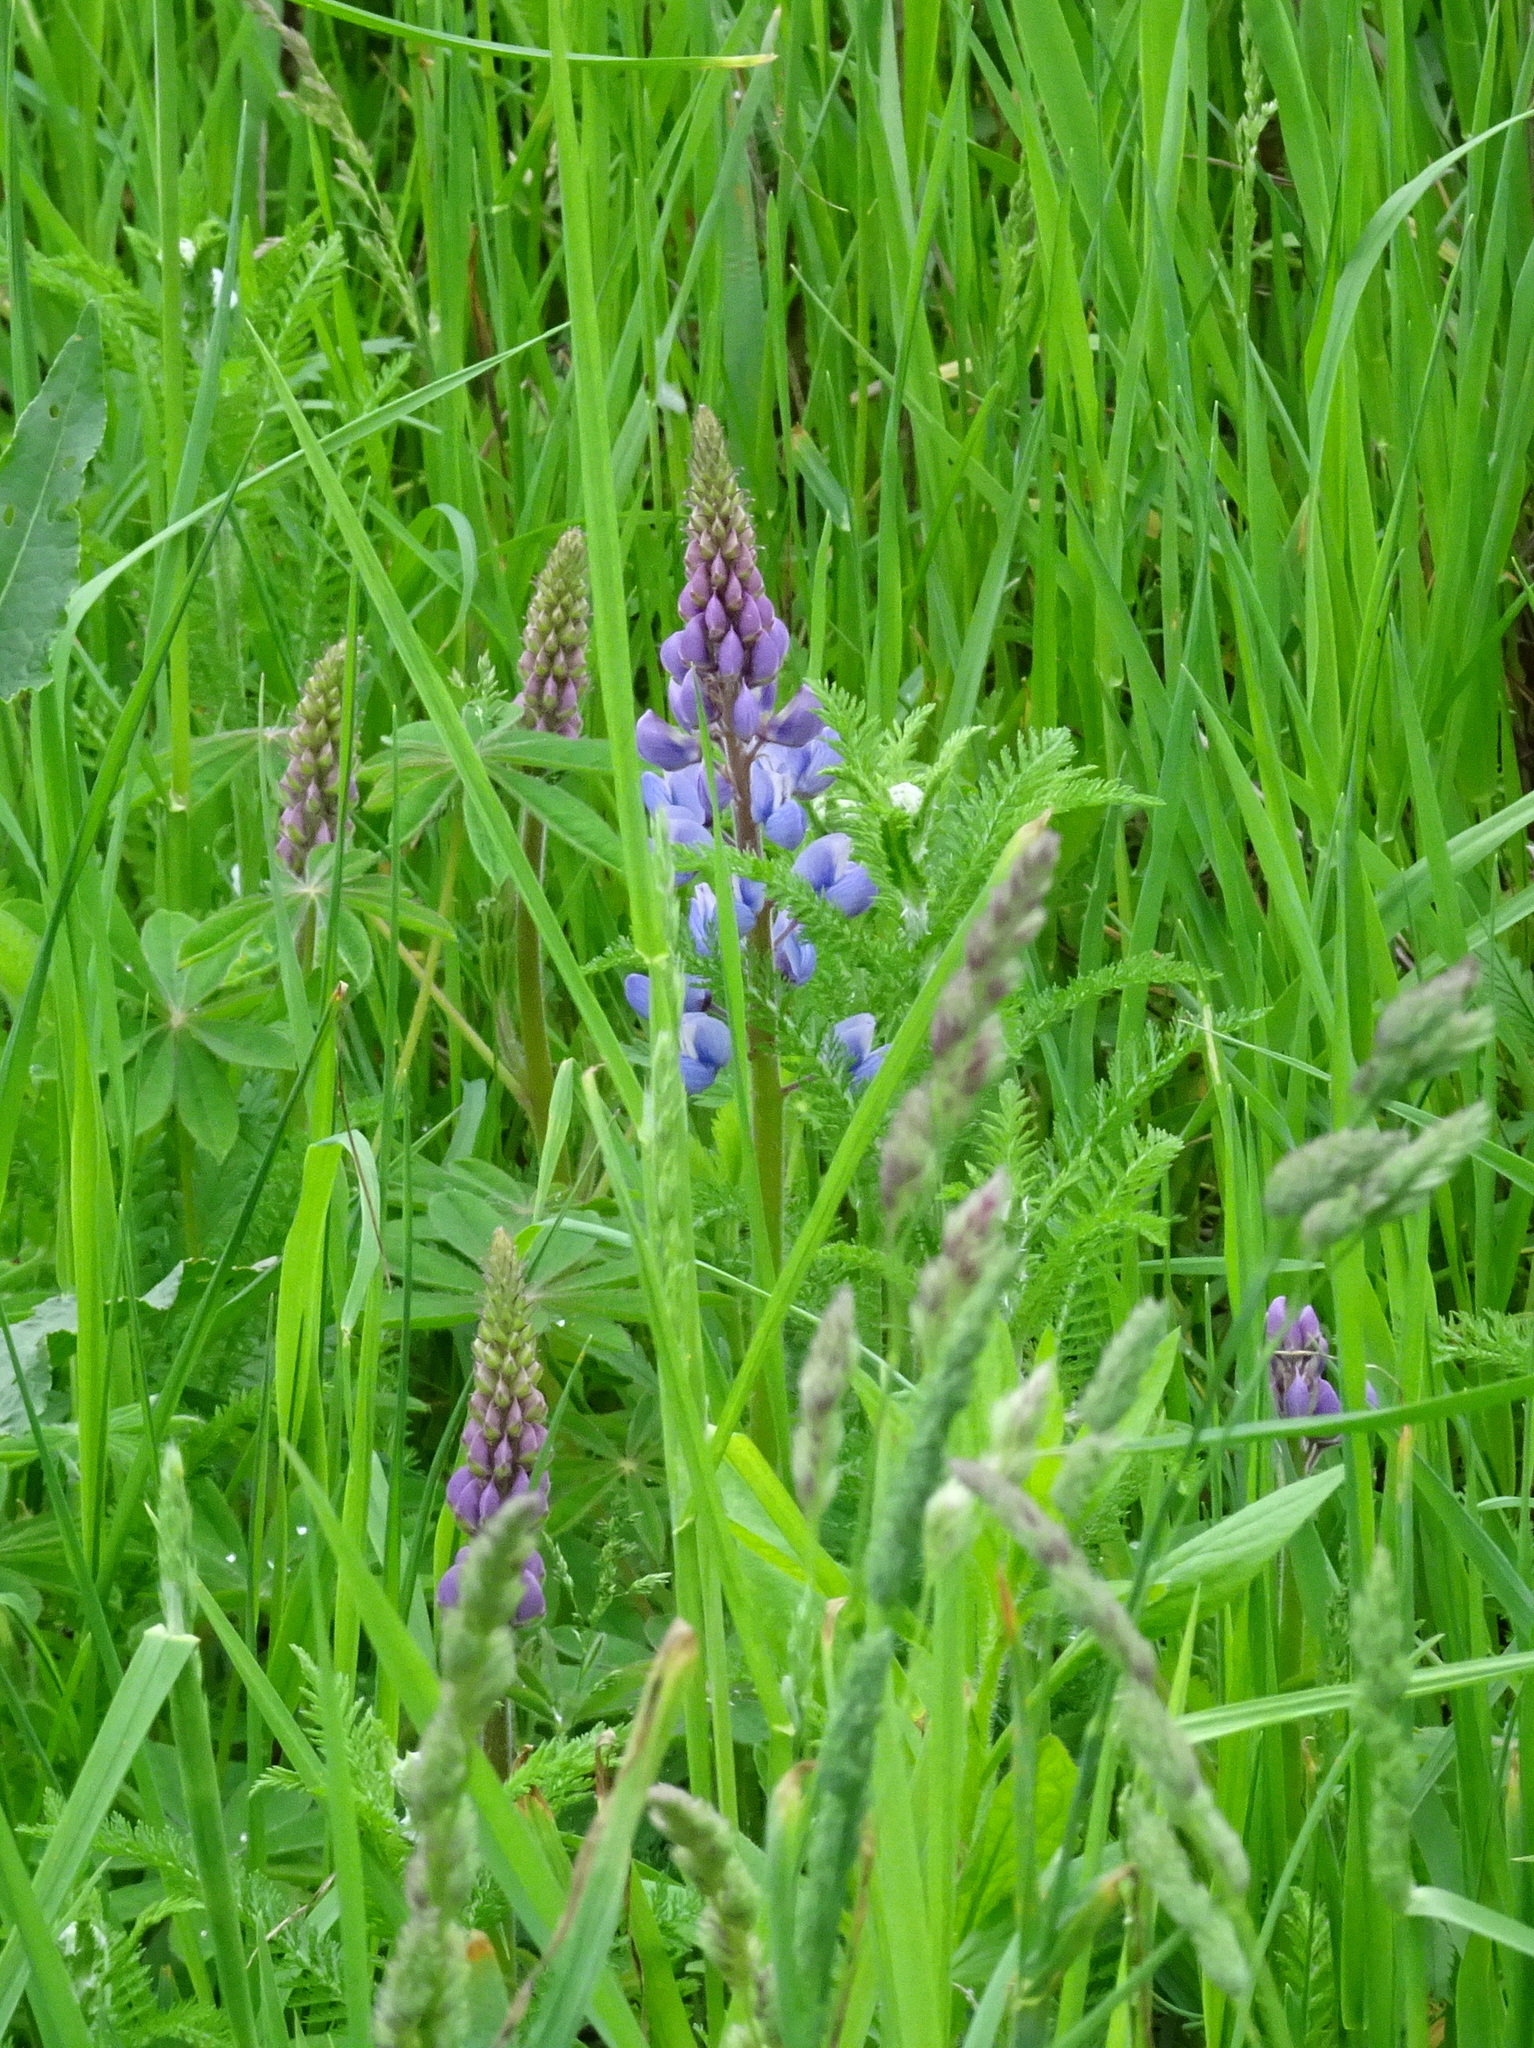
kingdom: Plantae
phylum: Tracheophyta
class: Magnoliopsida
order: Fabales
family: Fabaceae
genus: Lupinus
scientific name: Lupinus perennis
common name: Sundial lupine
